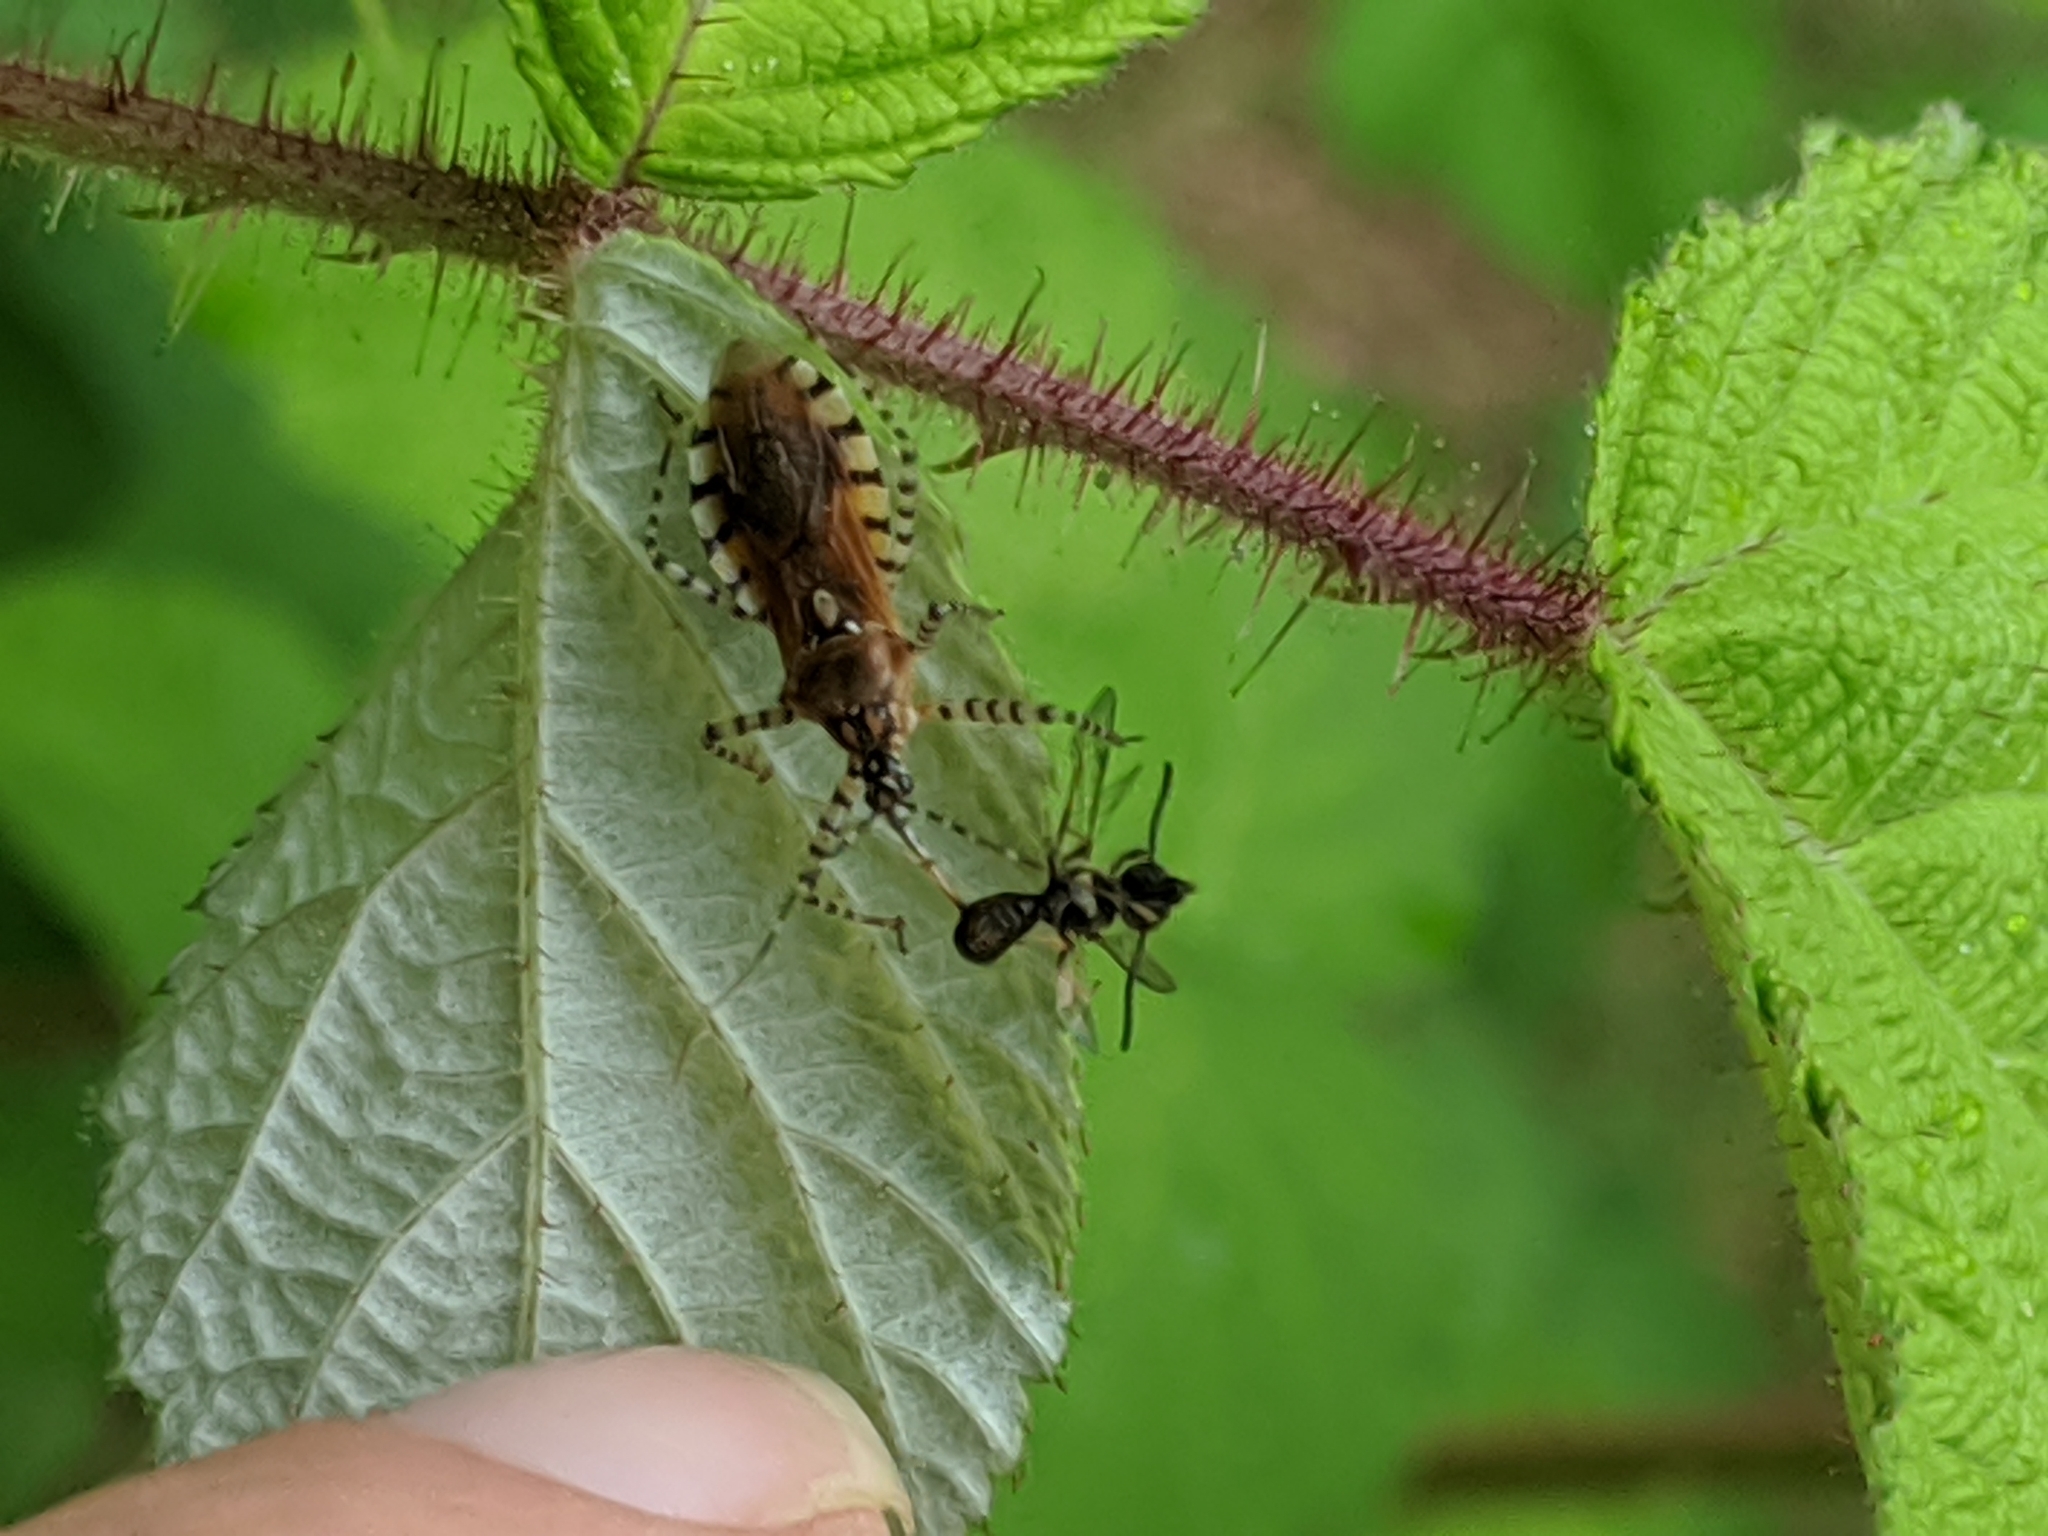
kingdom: Animalia
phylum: Arthropoda
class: Insecta
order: Hemiptera
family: Reduviidae
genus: Pselliopus
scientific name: Pselliopus cinctus
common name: Ringed assassin bug
